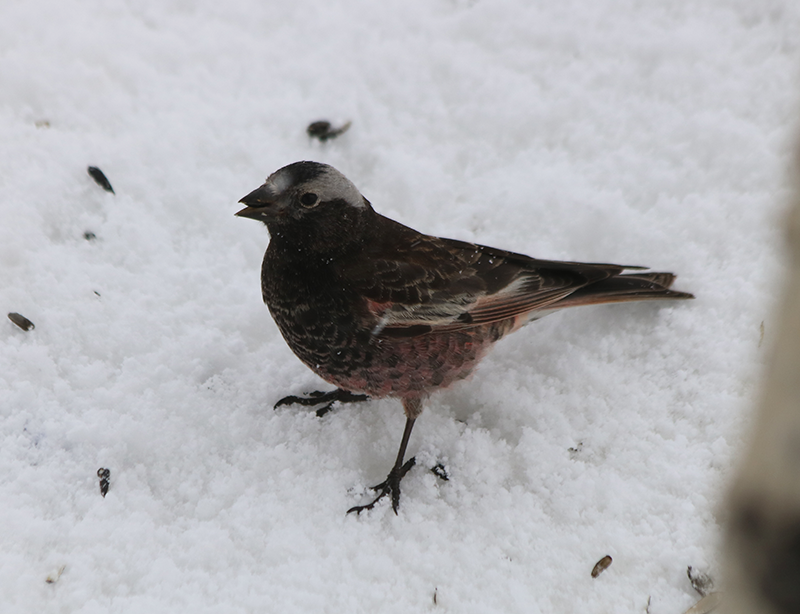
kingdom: Animalia
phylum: Chordata
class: Aves
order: Passeriformes
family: Fringillidae
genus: Leucosticte
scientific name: Leucosticte atrata
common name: Black rosy-finch
